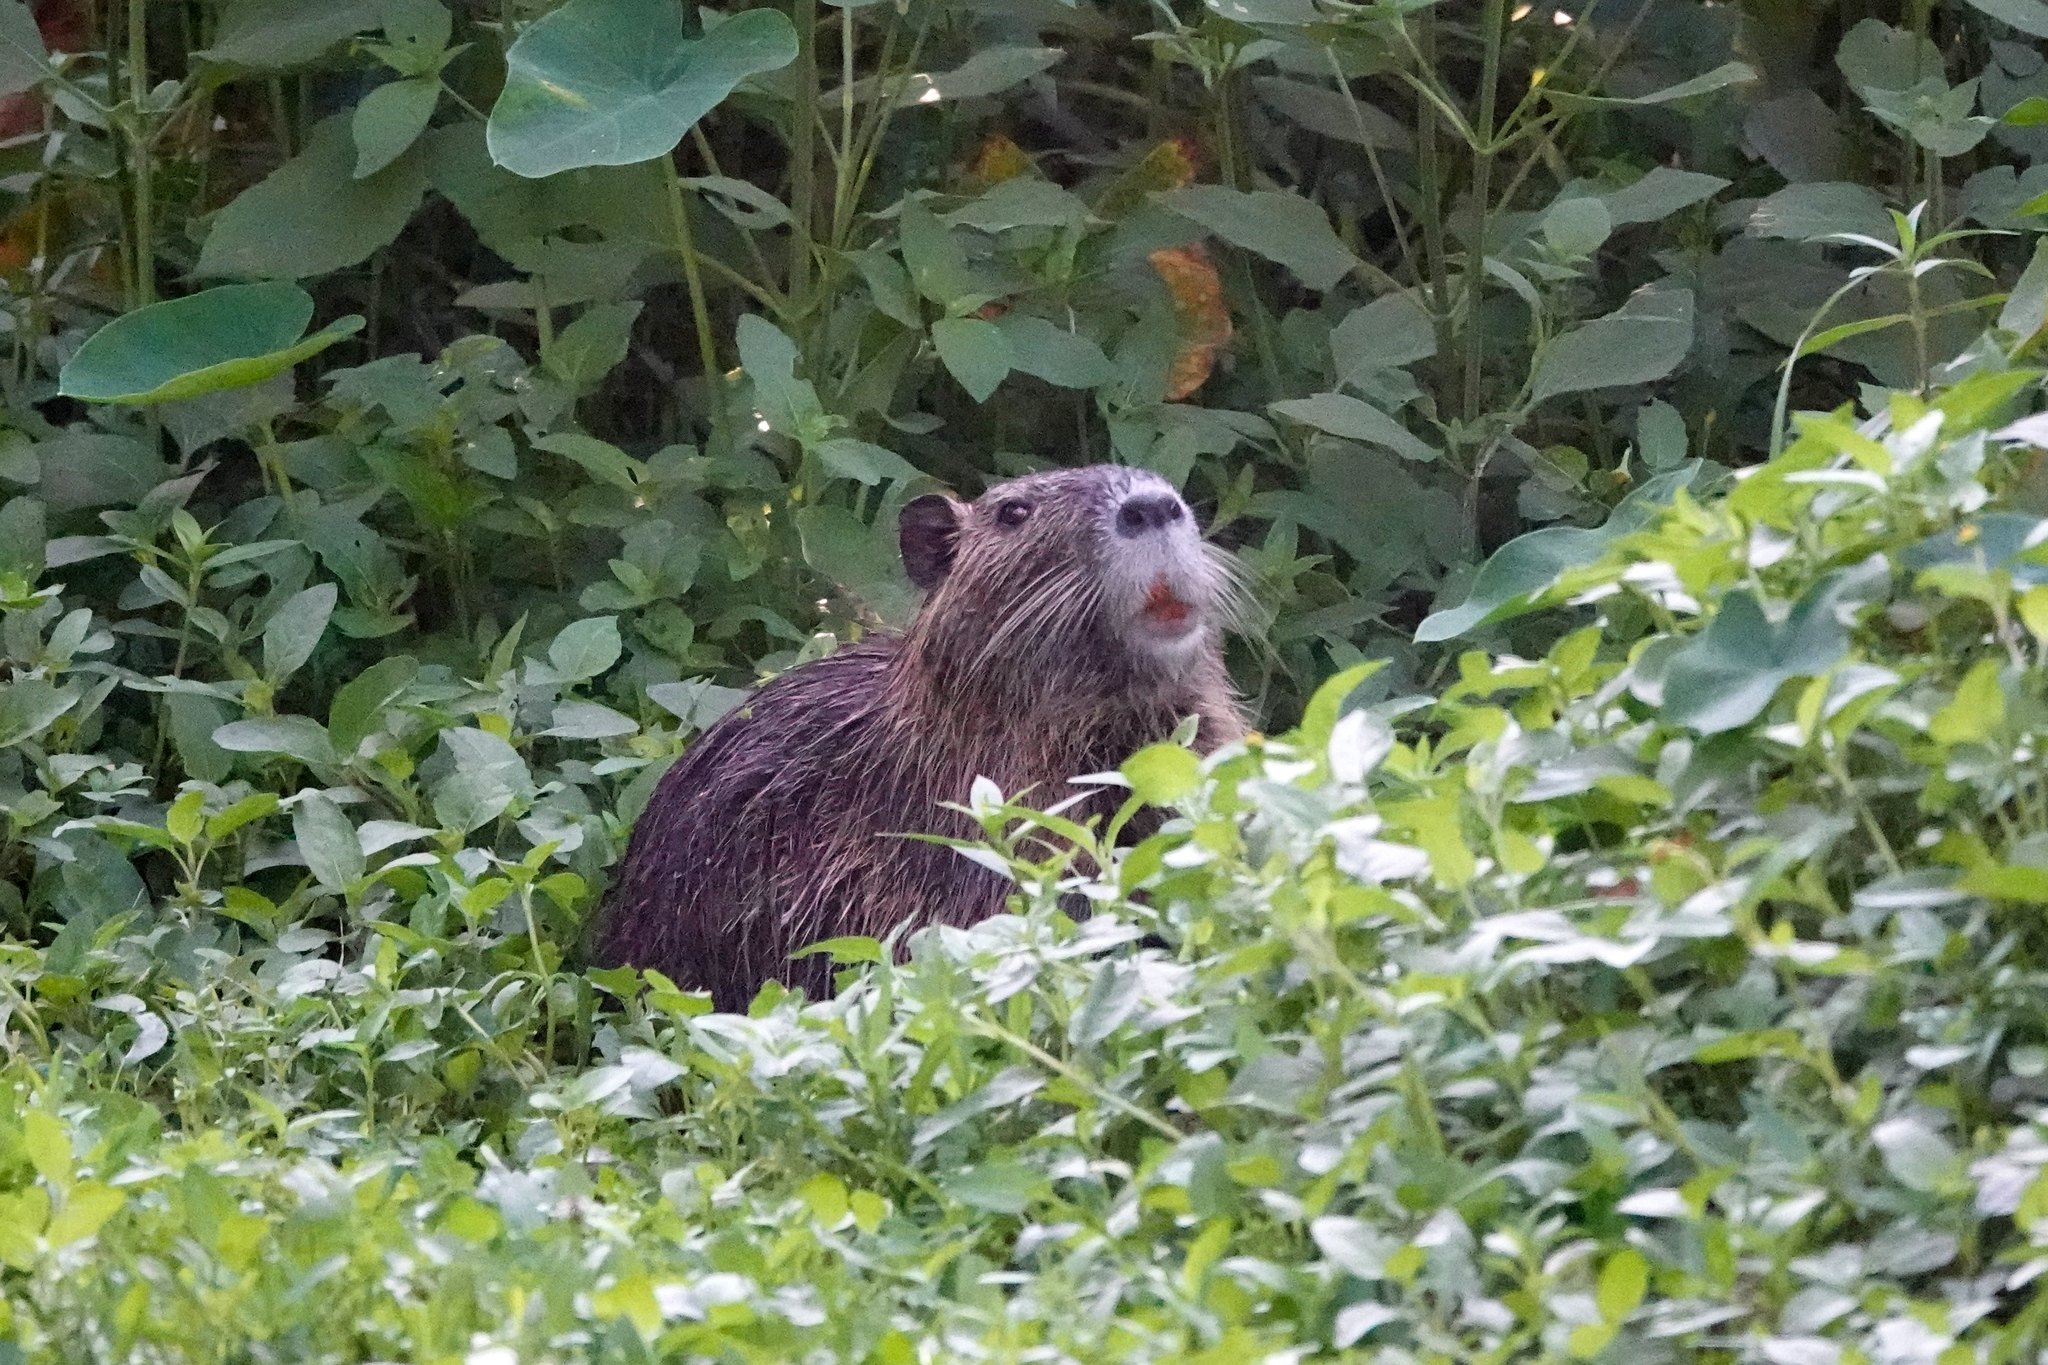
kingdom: Animalia
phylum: Chordata
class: Mammalia
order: Rodentia
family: Myocastoridae
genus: Myocastor
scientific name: Myocastor coypus
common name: Coypu
